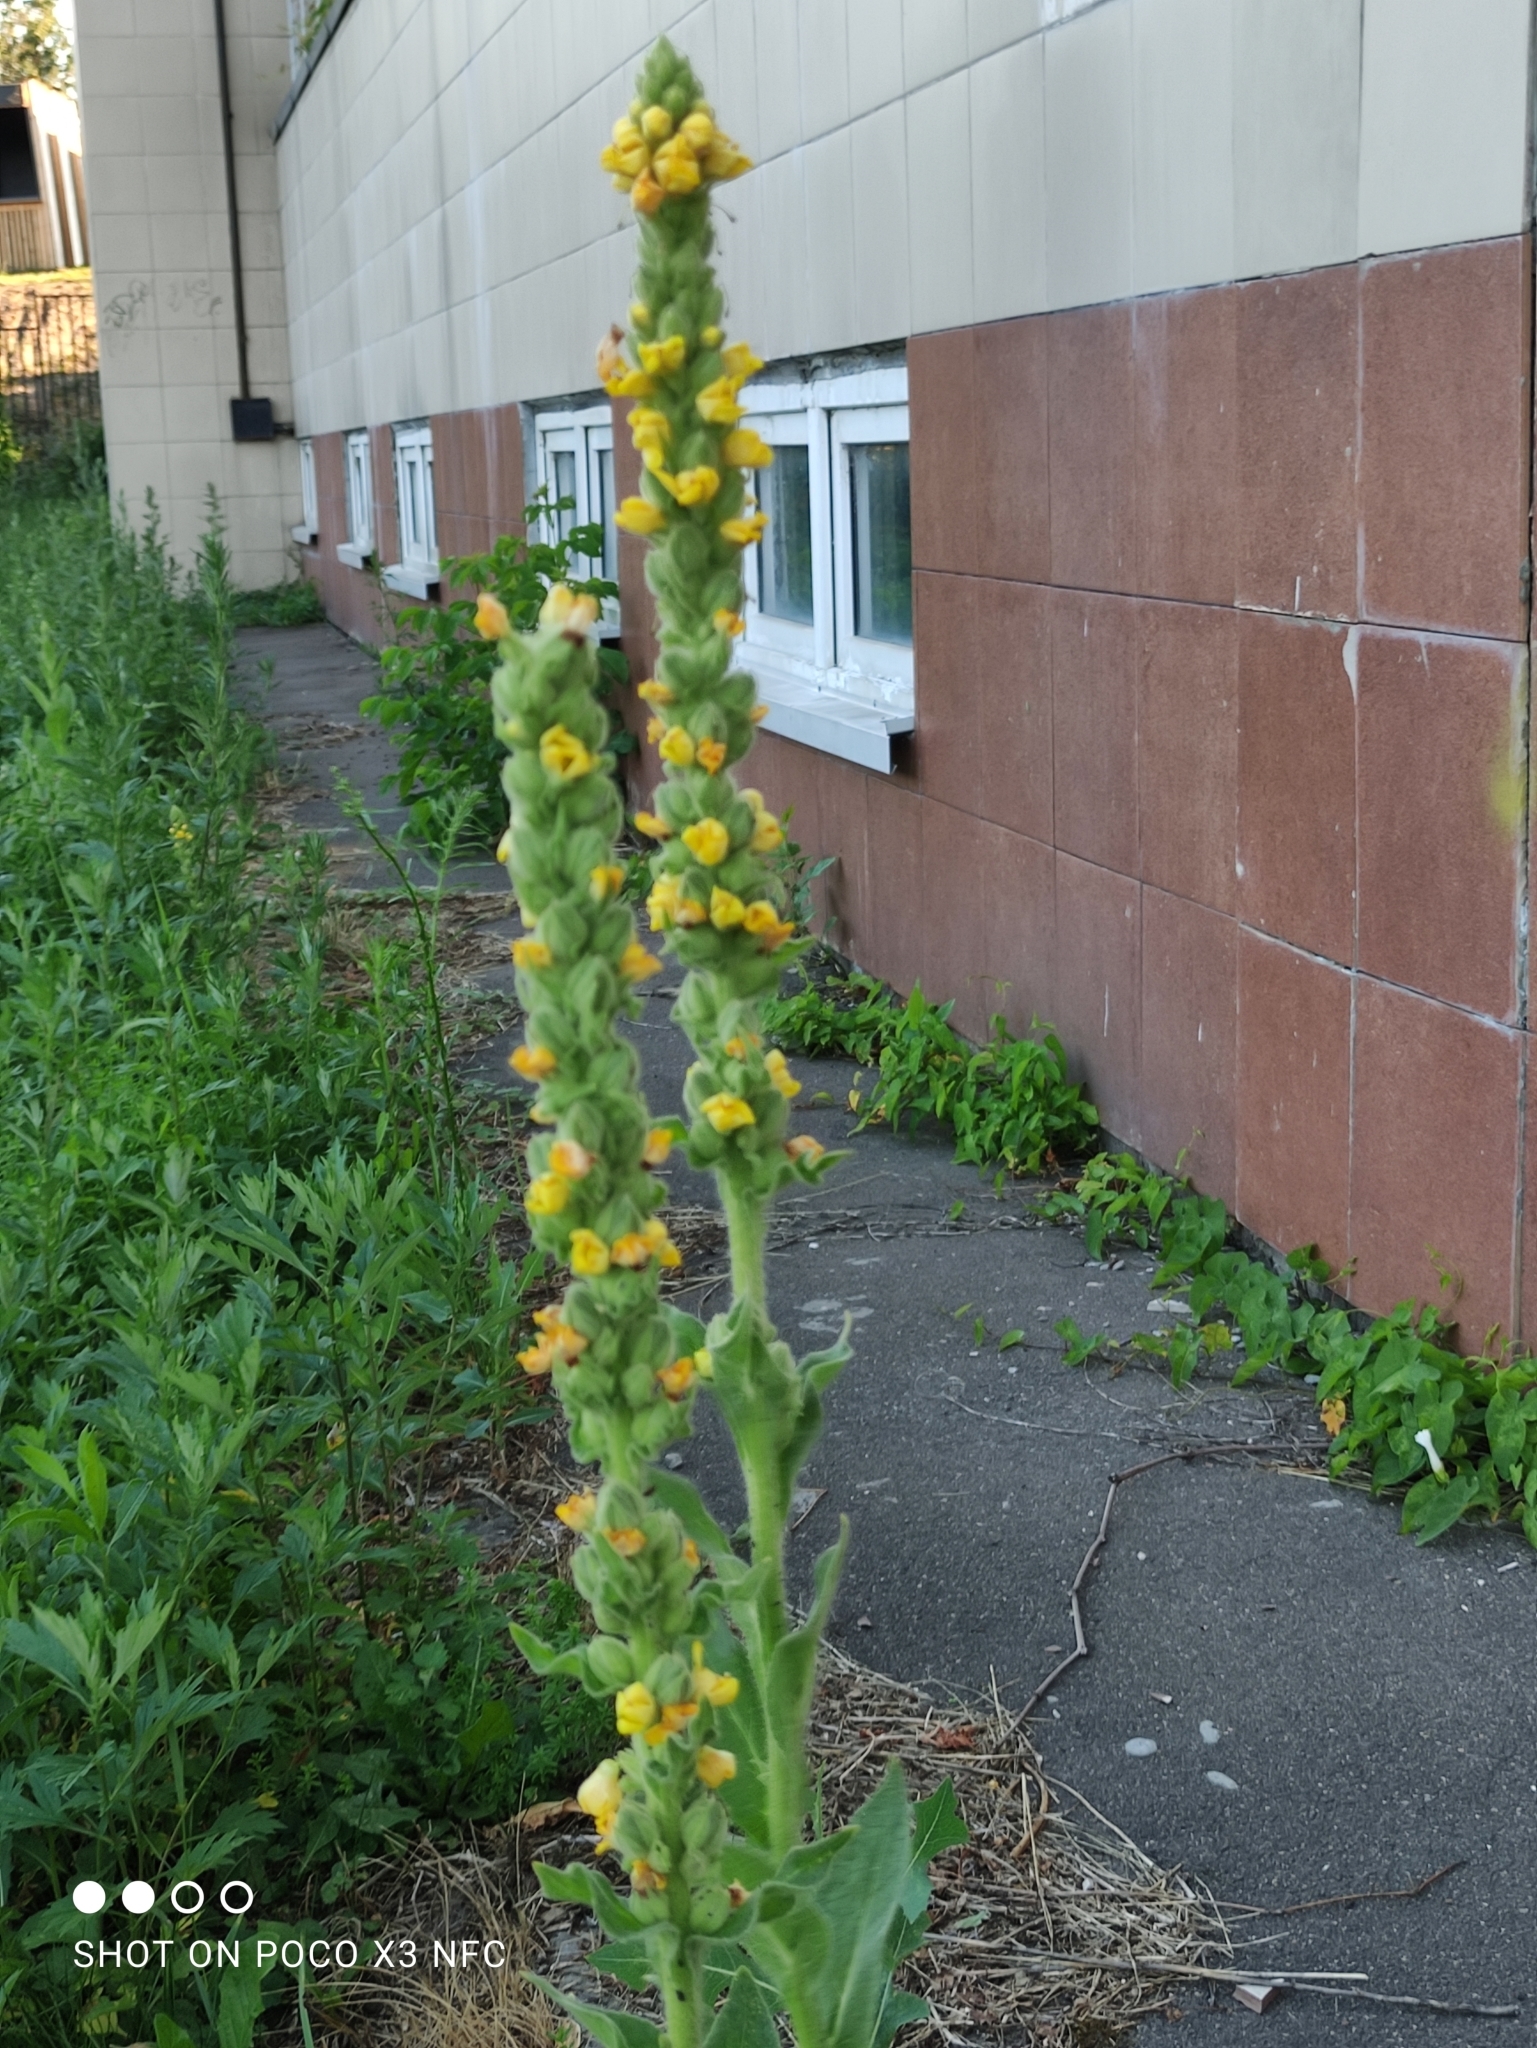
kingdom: Plantae
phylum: Tracheophyta
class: Magnoliopsida
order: Lamiales
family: Scrophulariaceae
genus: Verbascum
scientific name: Verbascum thapsus
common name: Common mullein
